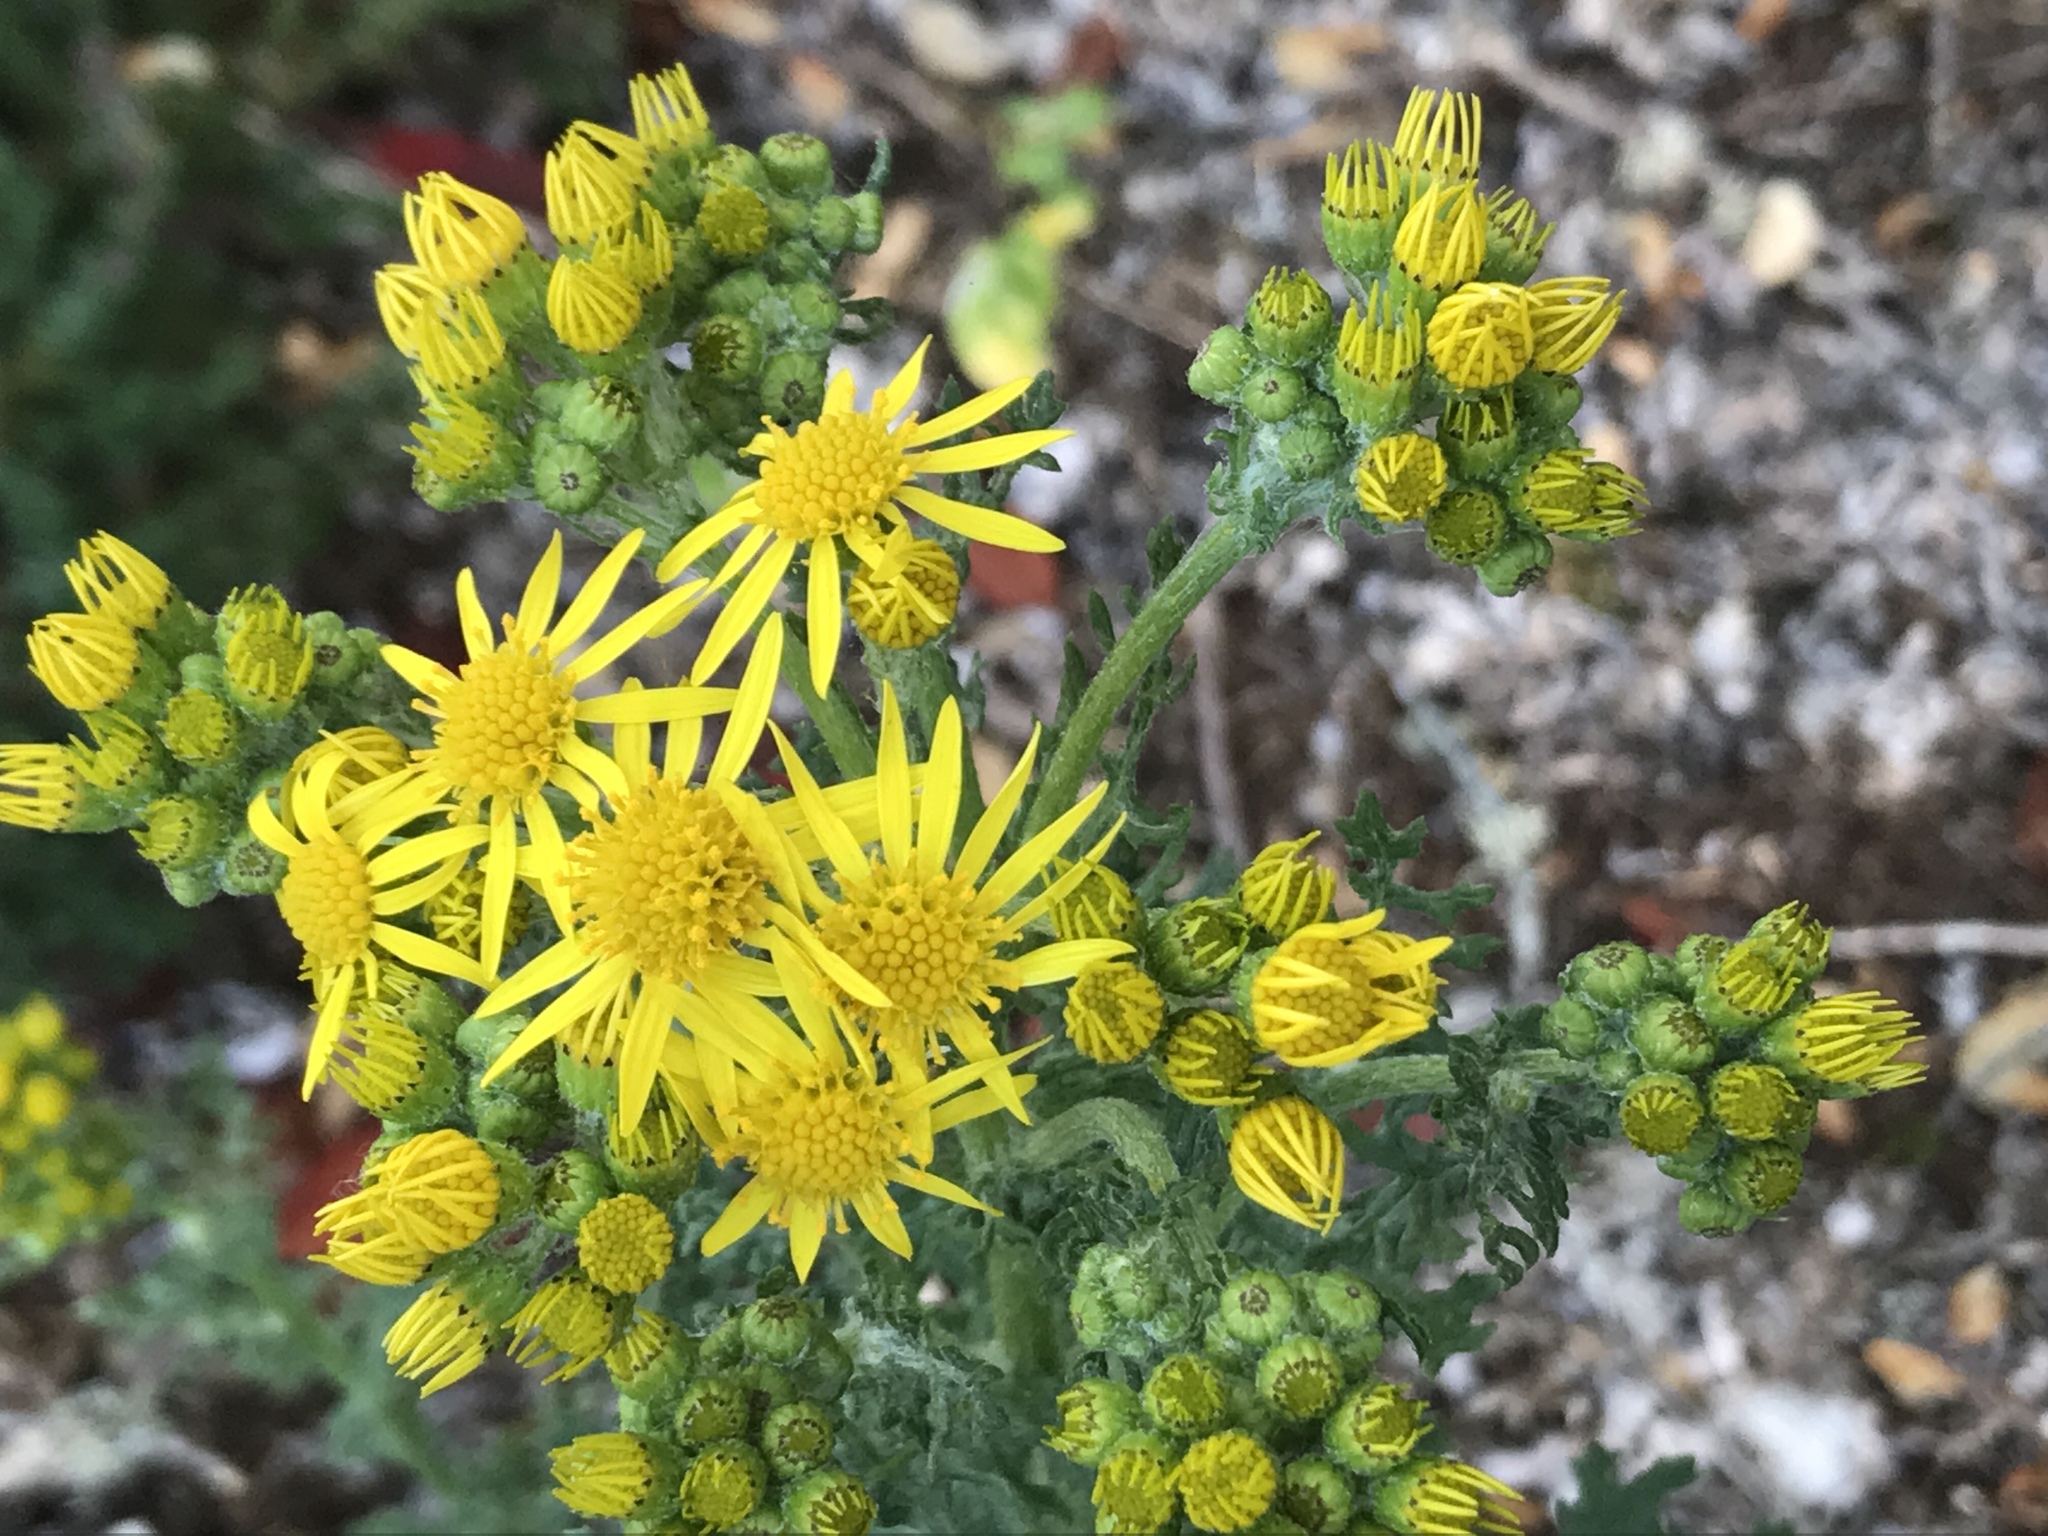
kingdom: Plantae
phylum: Tracheophyta
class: Magnoliopsida
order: Asterales
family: Asteraceae
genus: Jacobaea
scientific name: Jacobaea vulgaris
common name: Stinking willie
